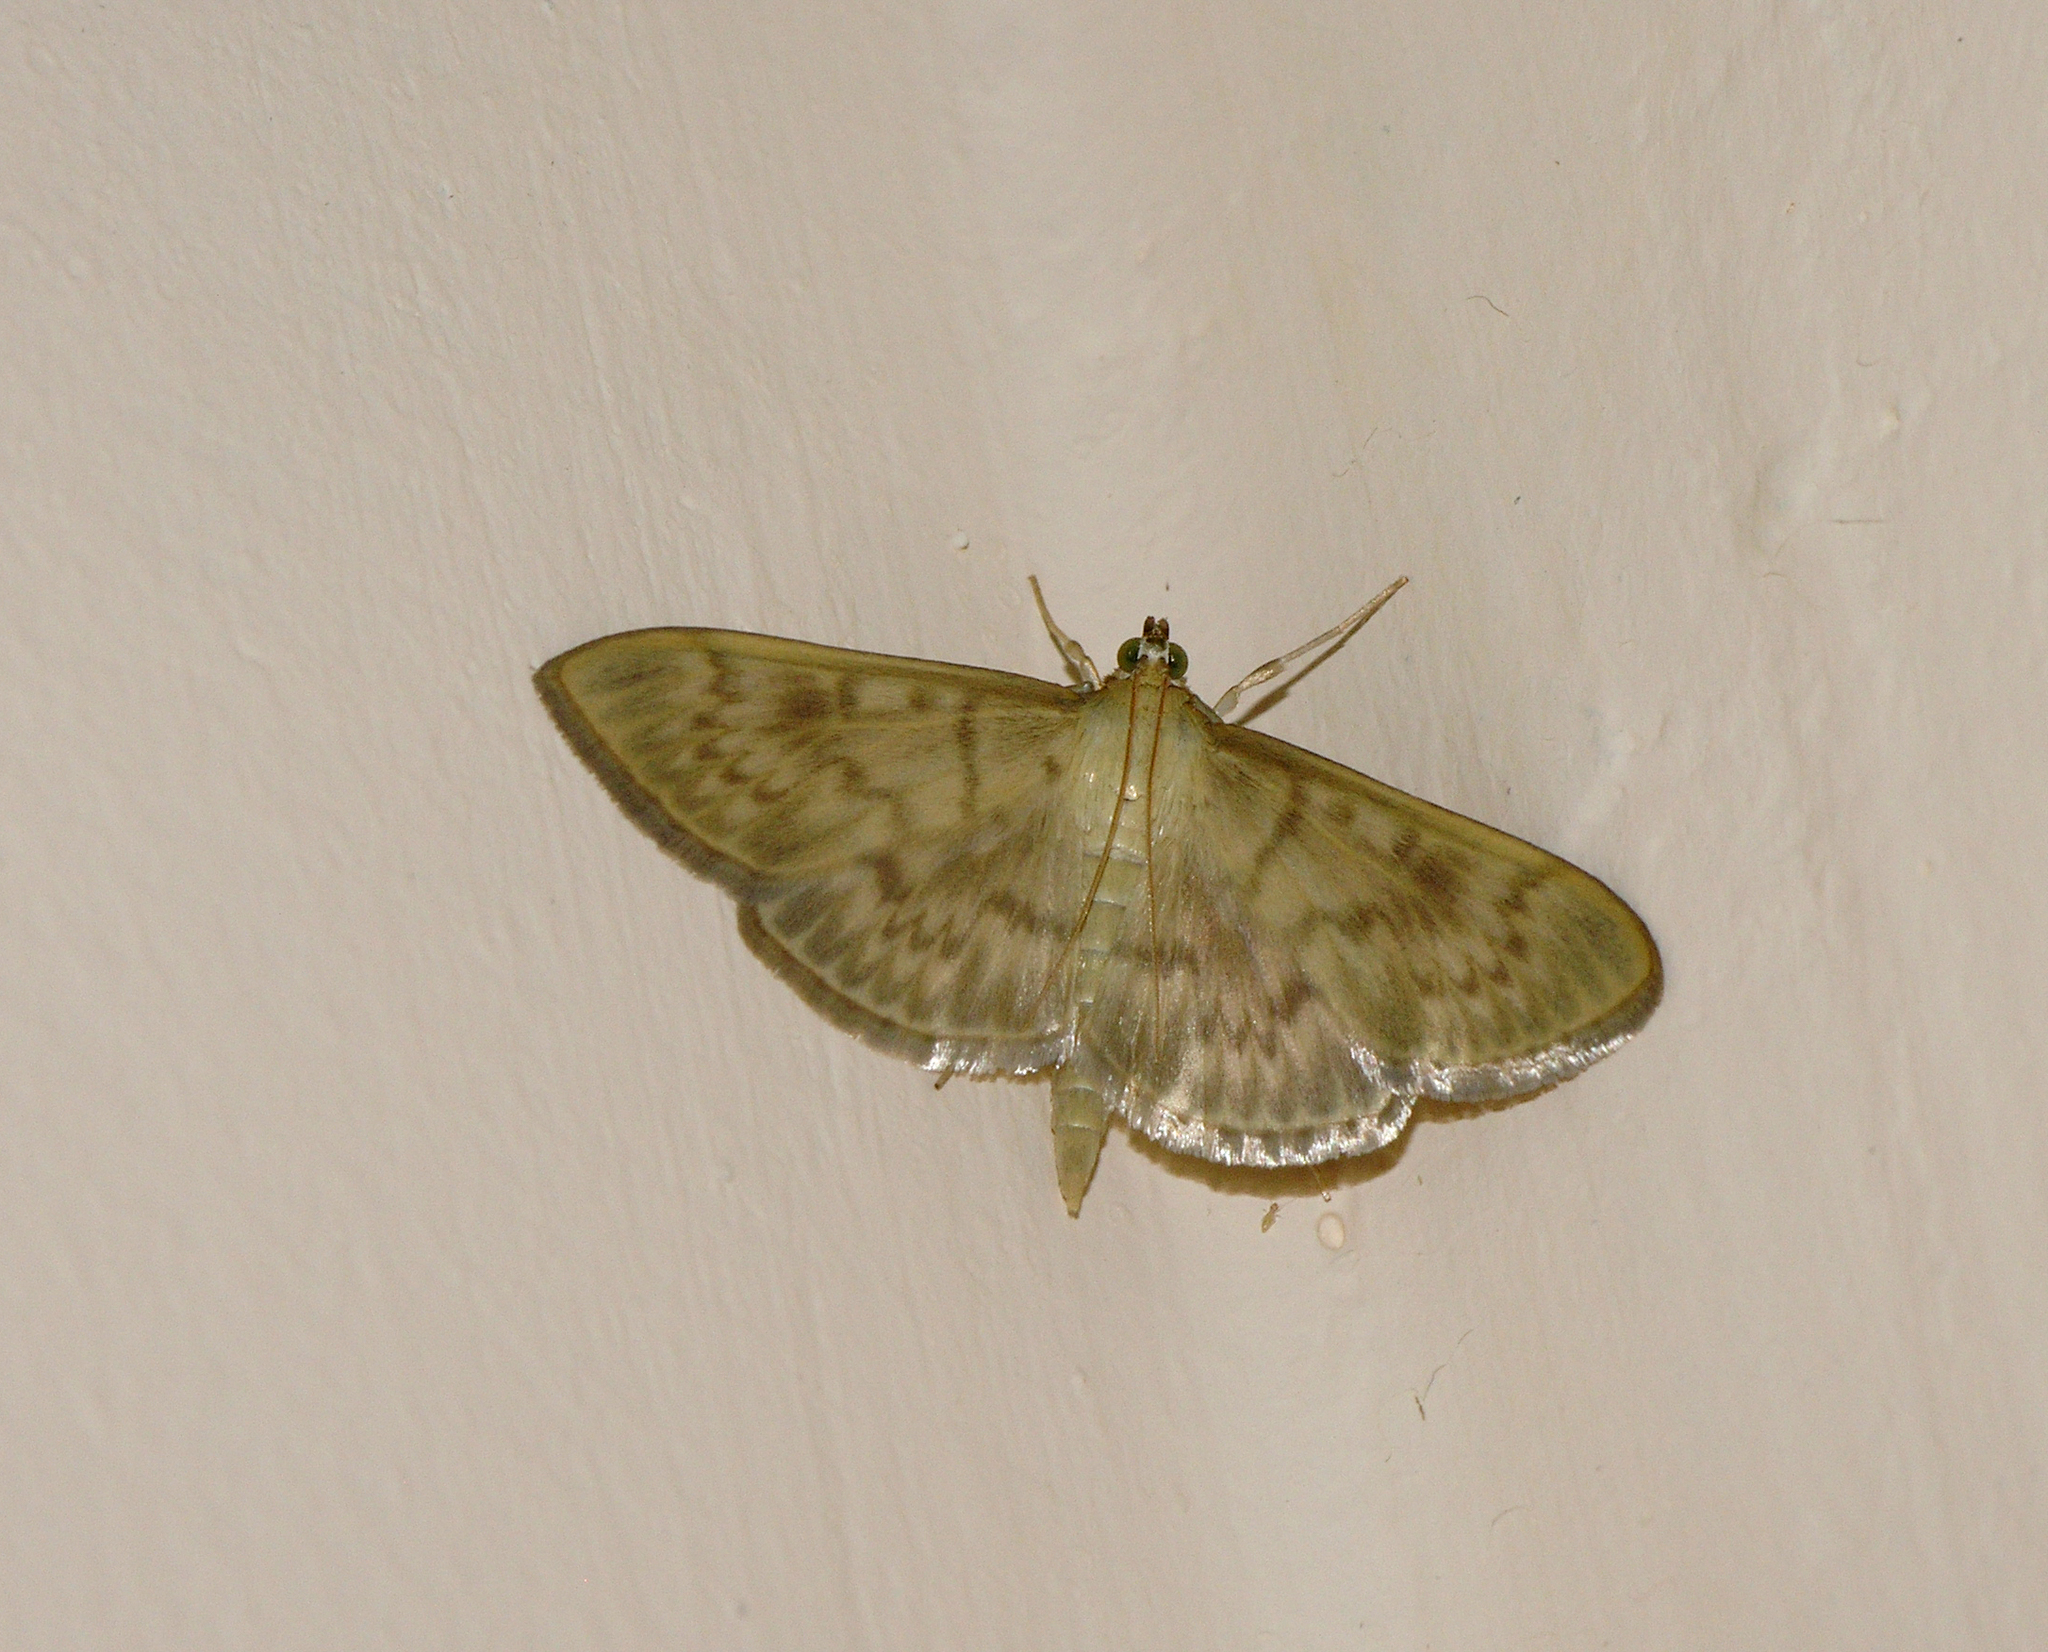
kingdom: Animalia
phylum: Arthropoda
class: Insecta
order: Lepidoptera
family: Crambidae
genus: Patania
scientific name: Patania ruralis
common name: Mother of pearl
